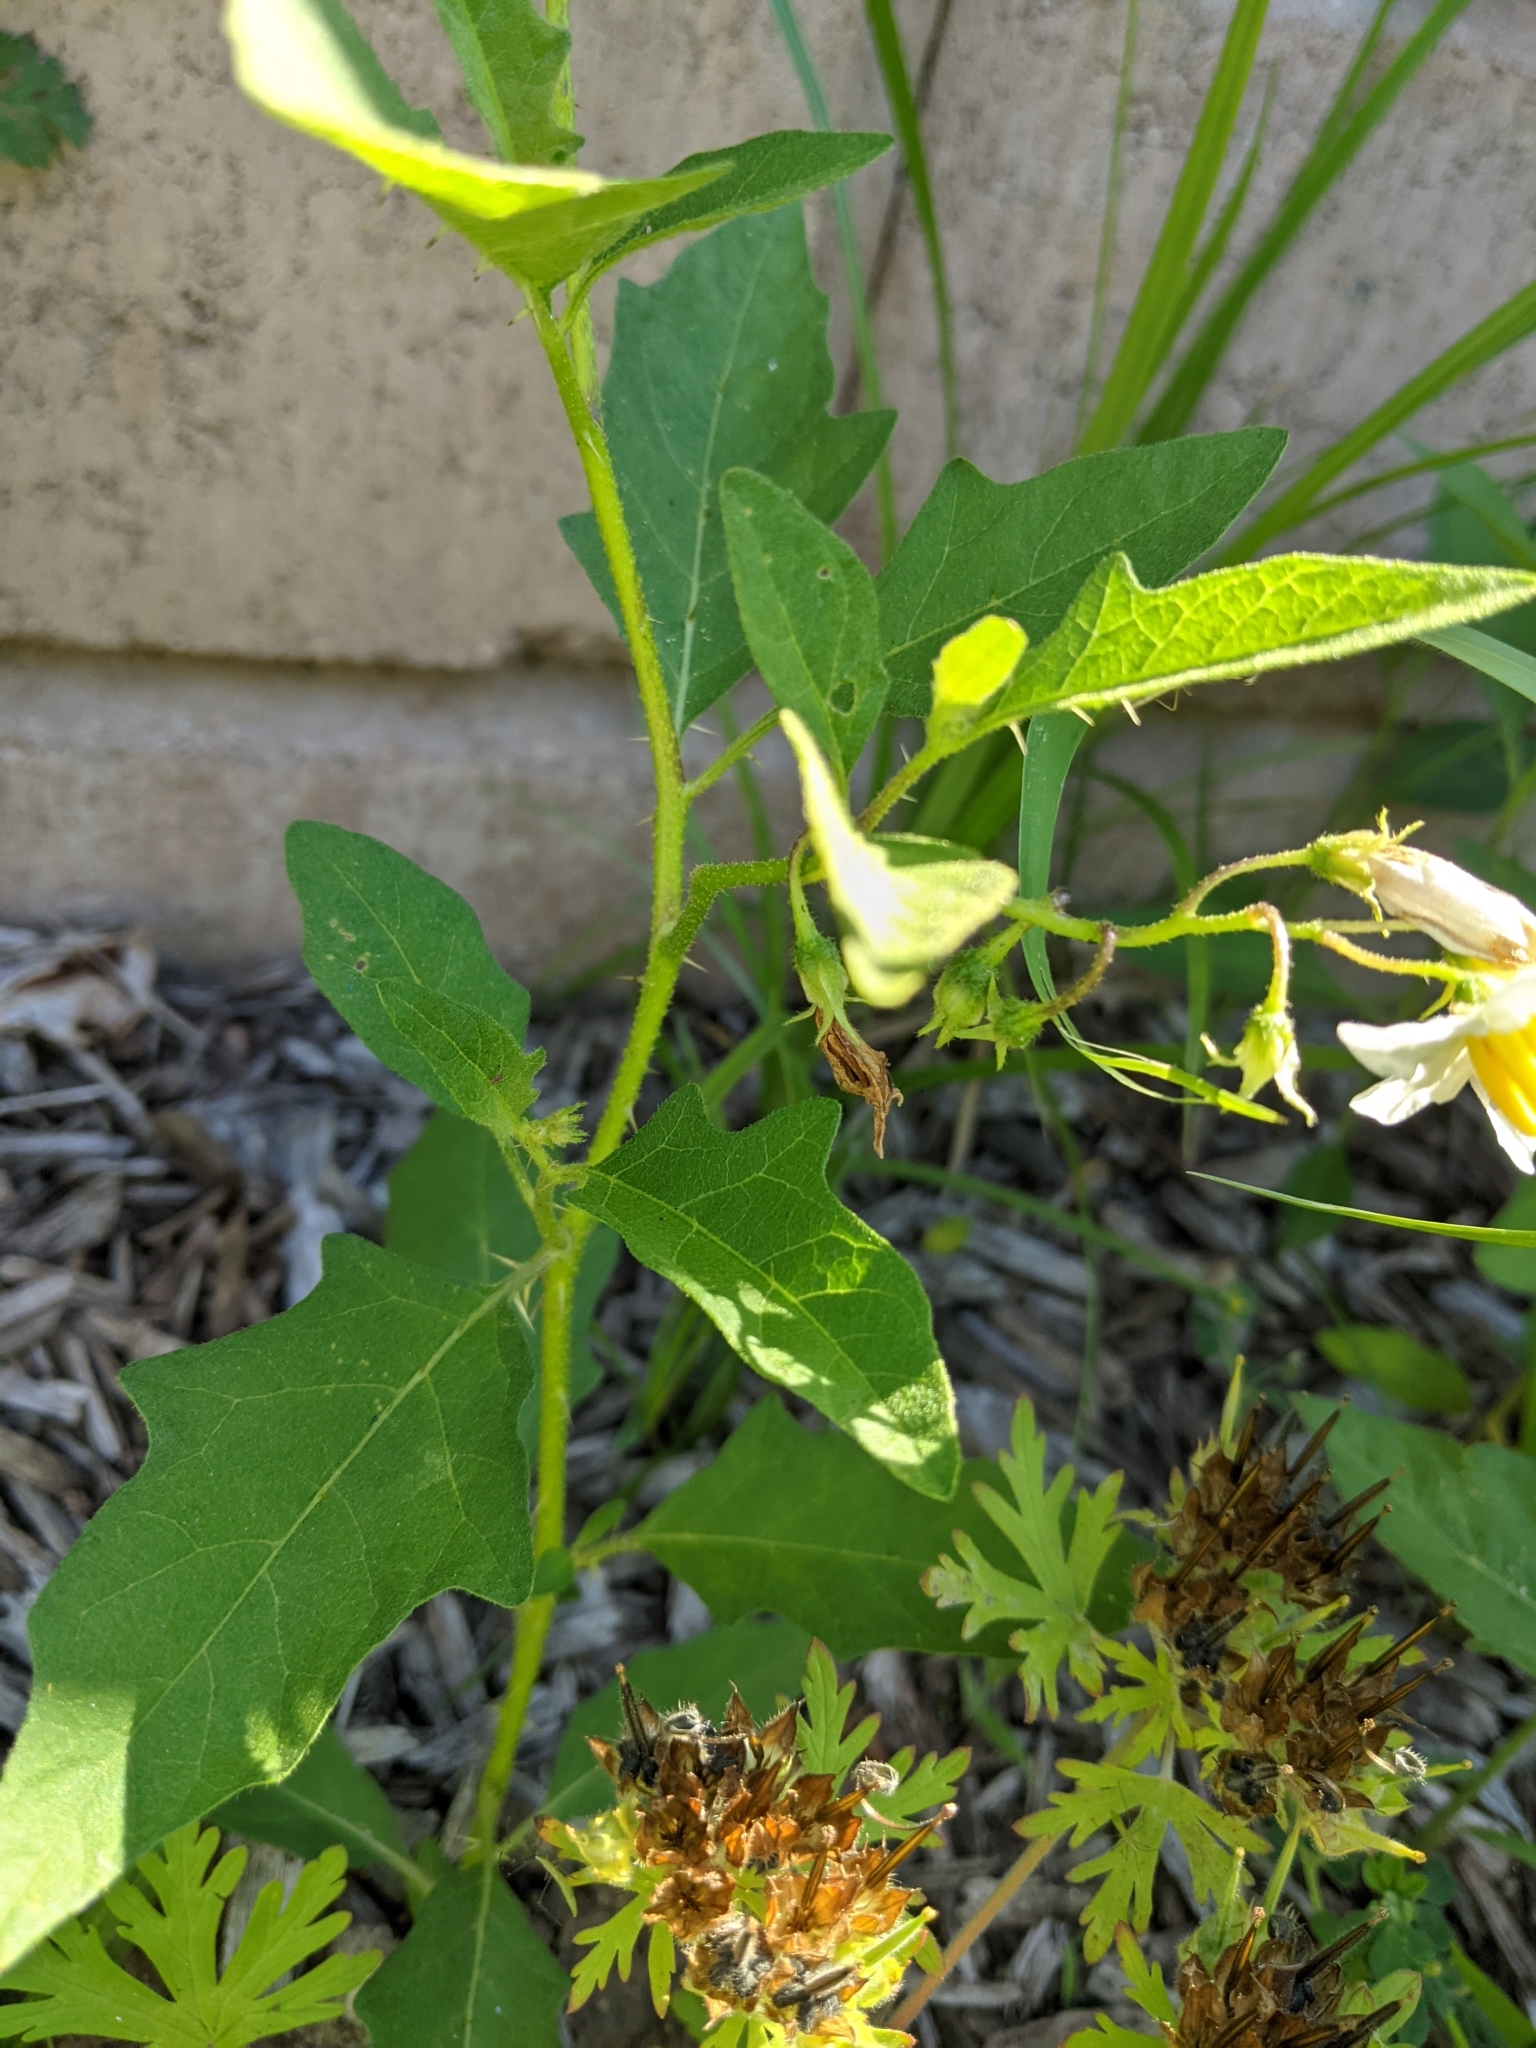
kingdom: Plantae
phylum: Tracheophyta
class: Magnoliopsida
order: Solanales
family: Solanaceae
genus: Solanum
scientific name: Solanum carolinense
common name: Horse-nettle
